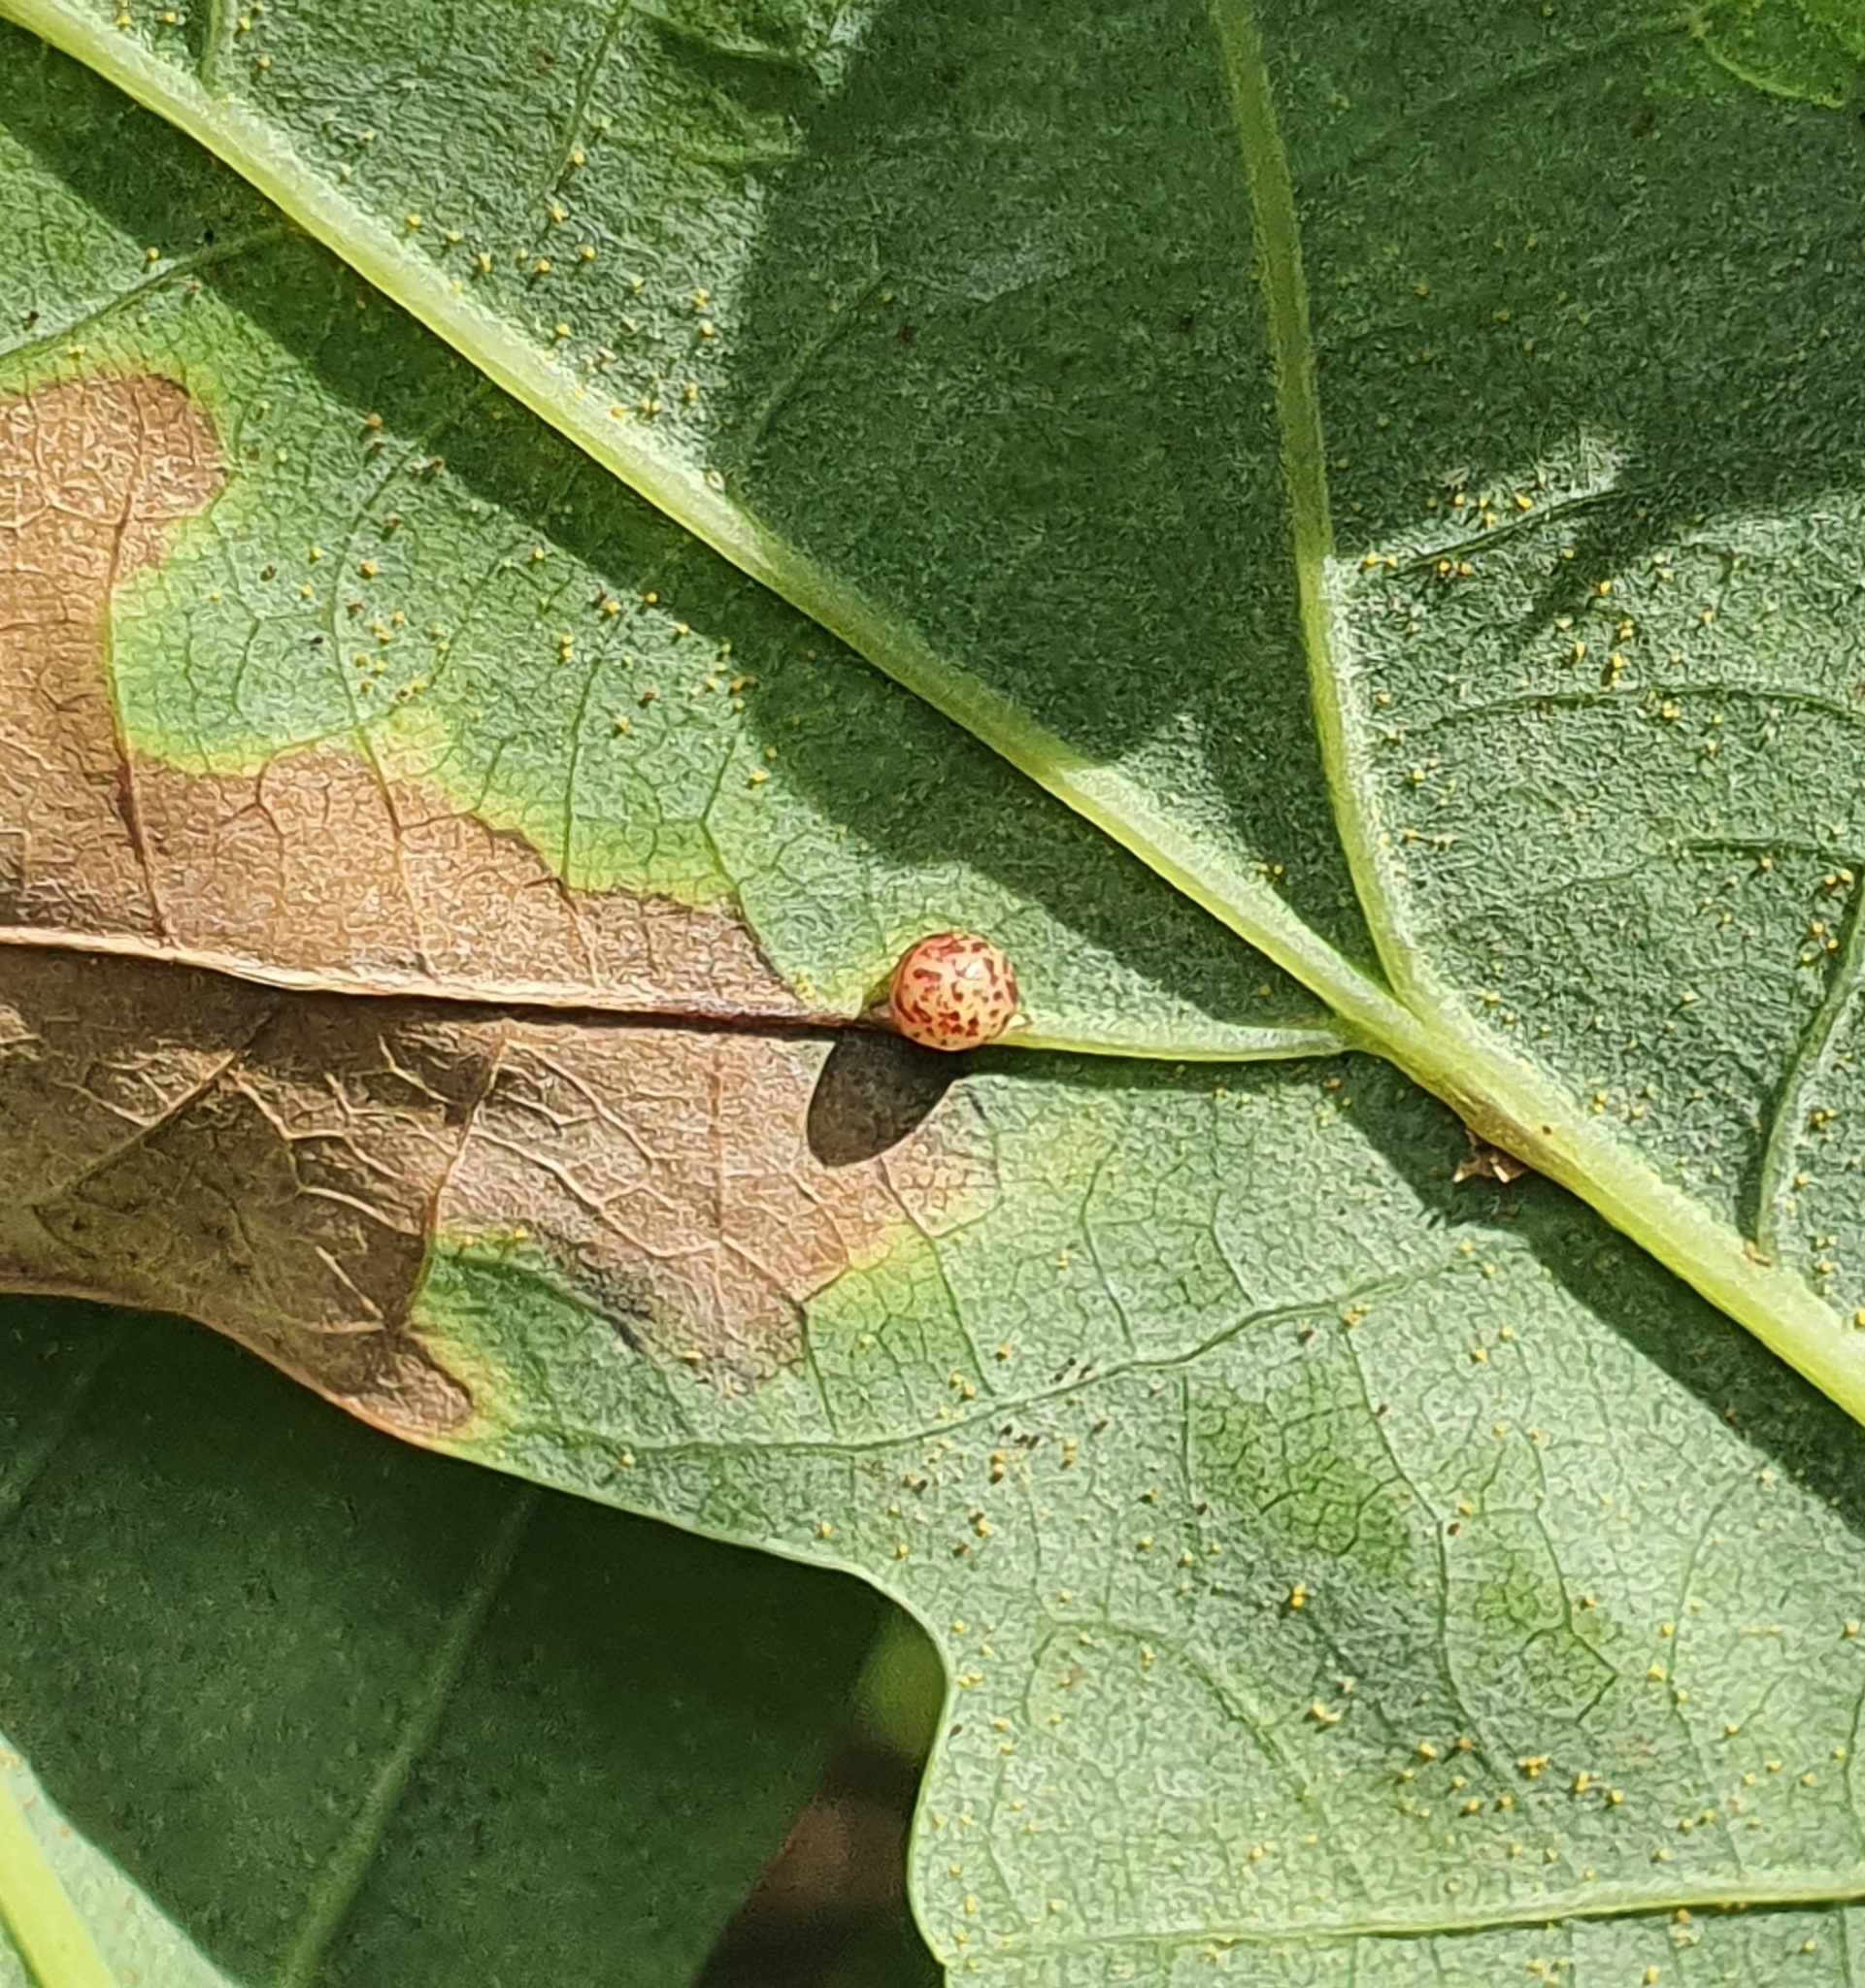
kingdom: Animalia
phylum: Arthropoda
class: Insecta
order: Hymenoptera
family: Cynipidae
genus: Neuroterus
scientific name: Neuroterus anthracinus
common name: Oyster gall
